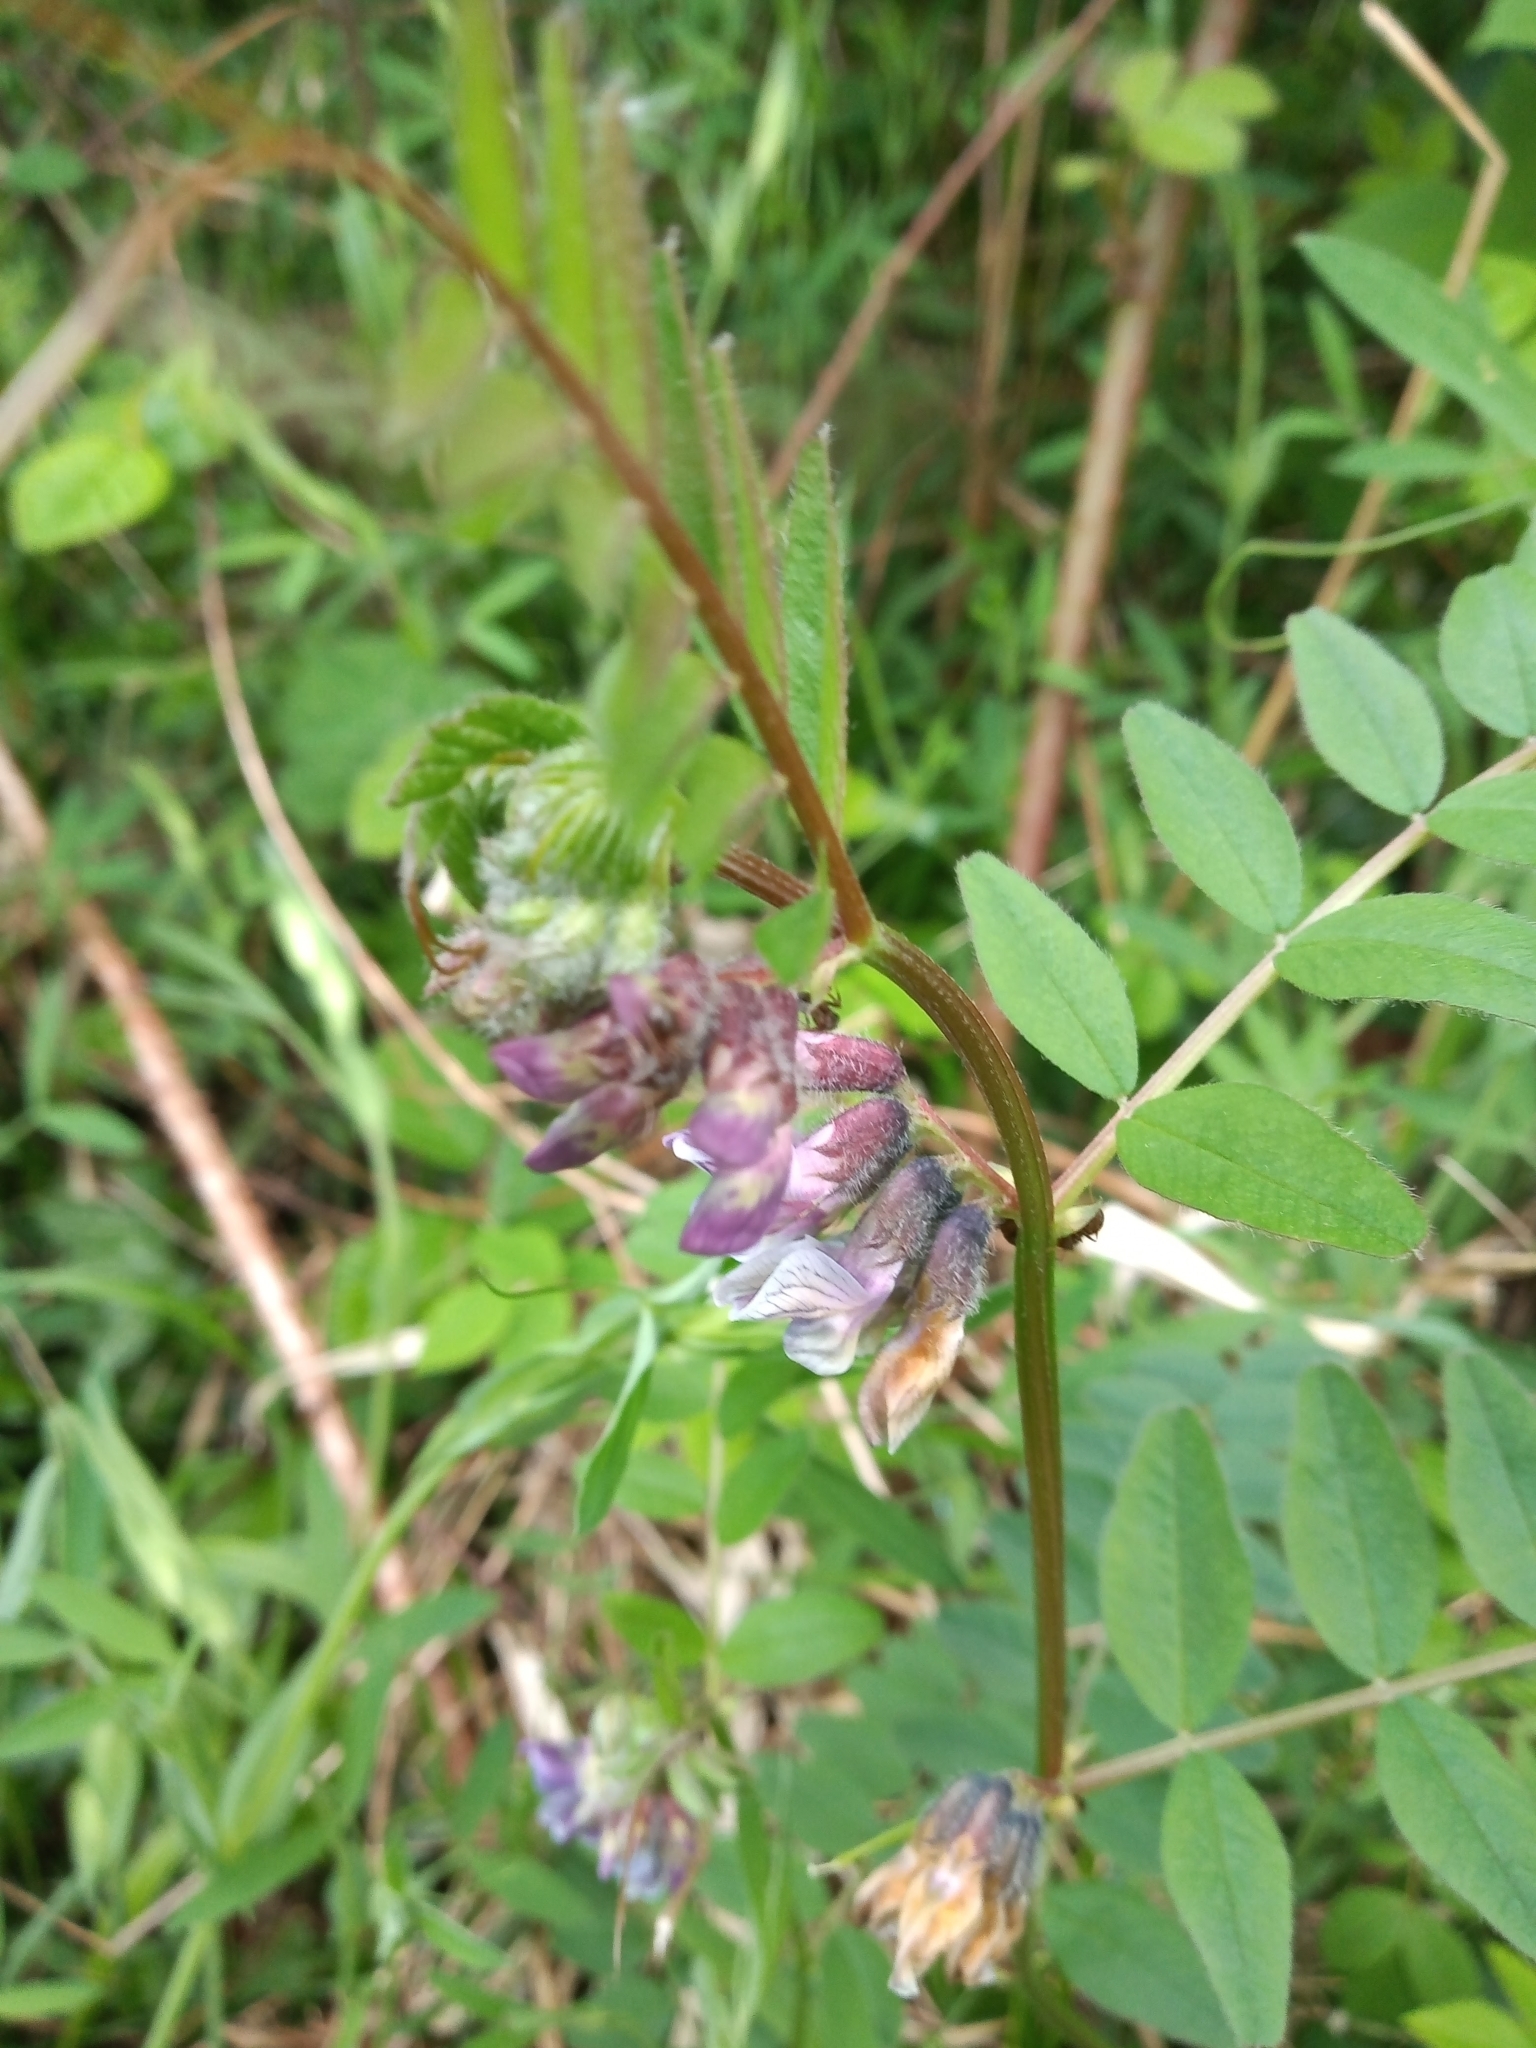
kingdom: Plantae
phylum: Tracheophyta
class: Magnoliopsida
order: Fabales
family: Fabaceae
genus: Vicia
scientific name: Vicia sepium
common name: Bush vetch
